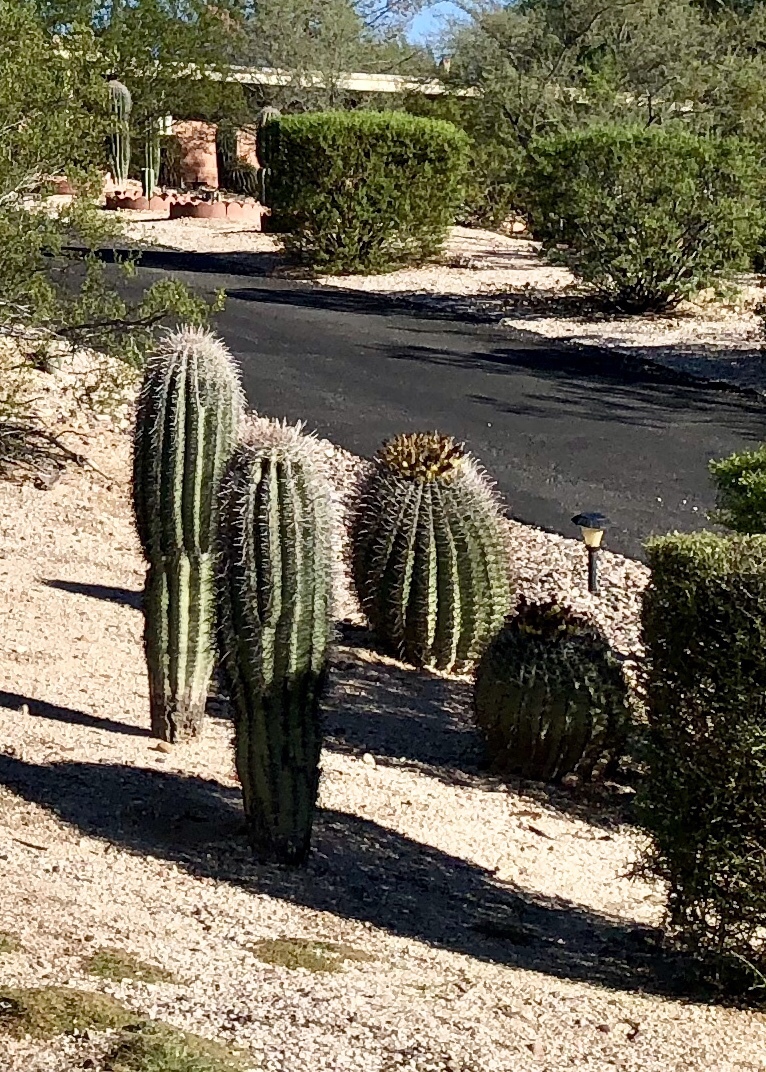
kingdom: Plantae
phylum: Tracheophyta
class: Magnoliopsida
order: Caryophyllales
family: Cactaceae
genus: Ferocactus
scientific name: Ferocactus wislizeni
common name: Candy barrel cactus
